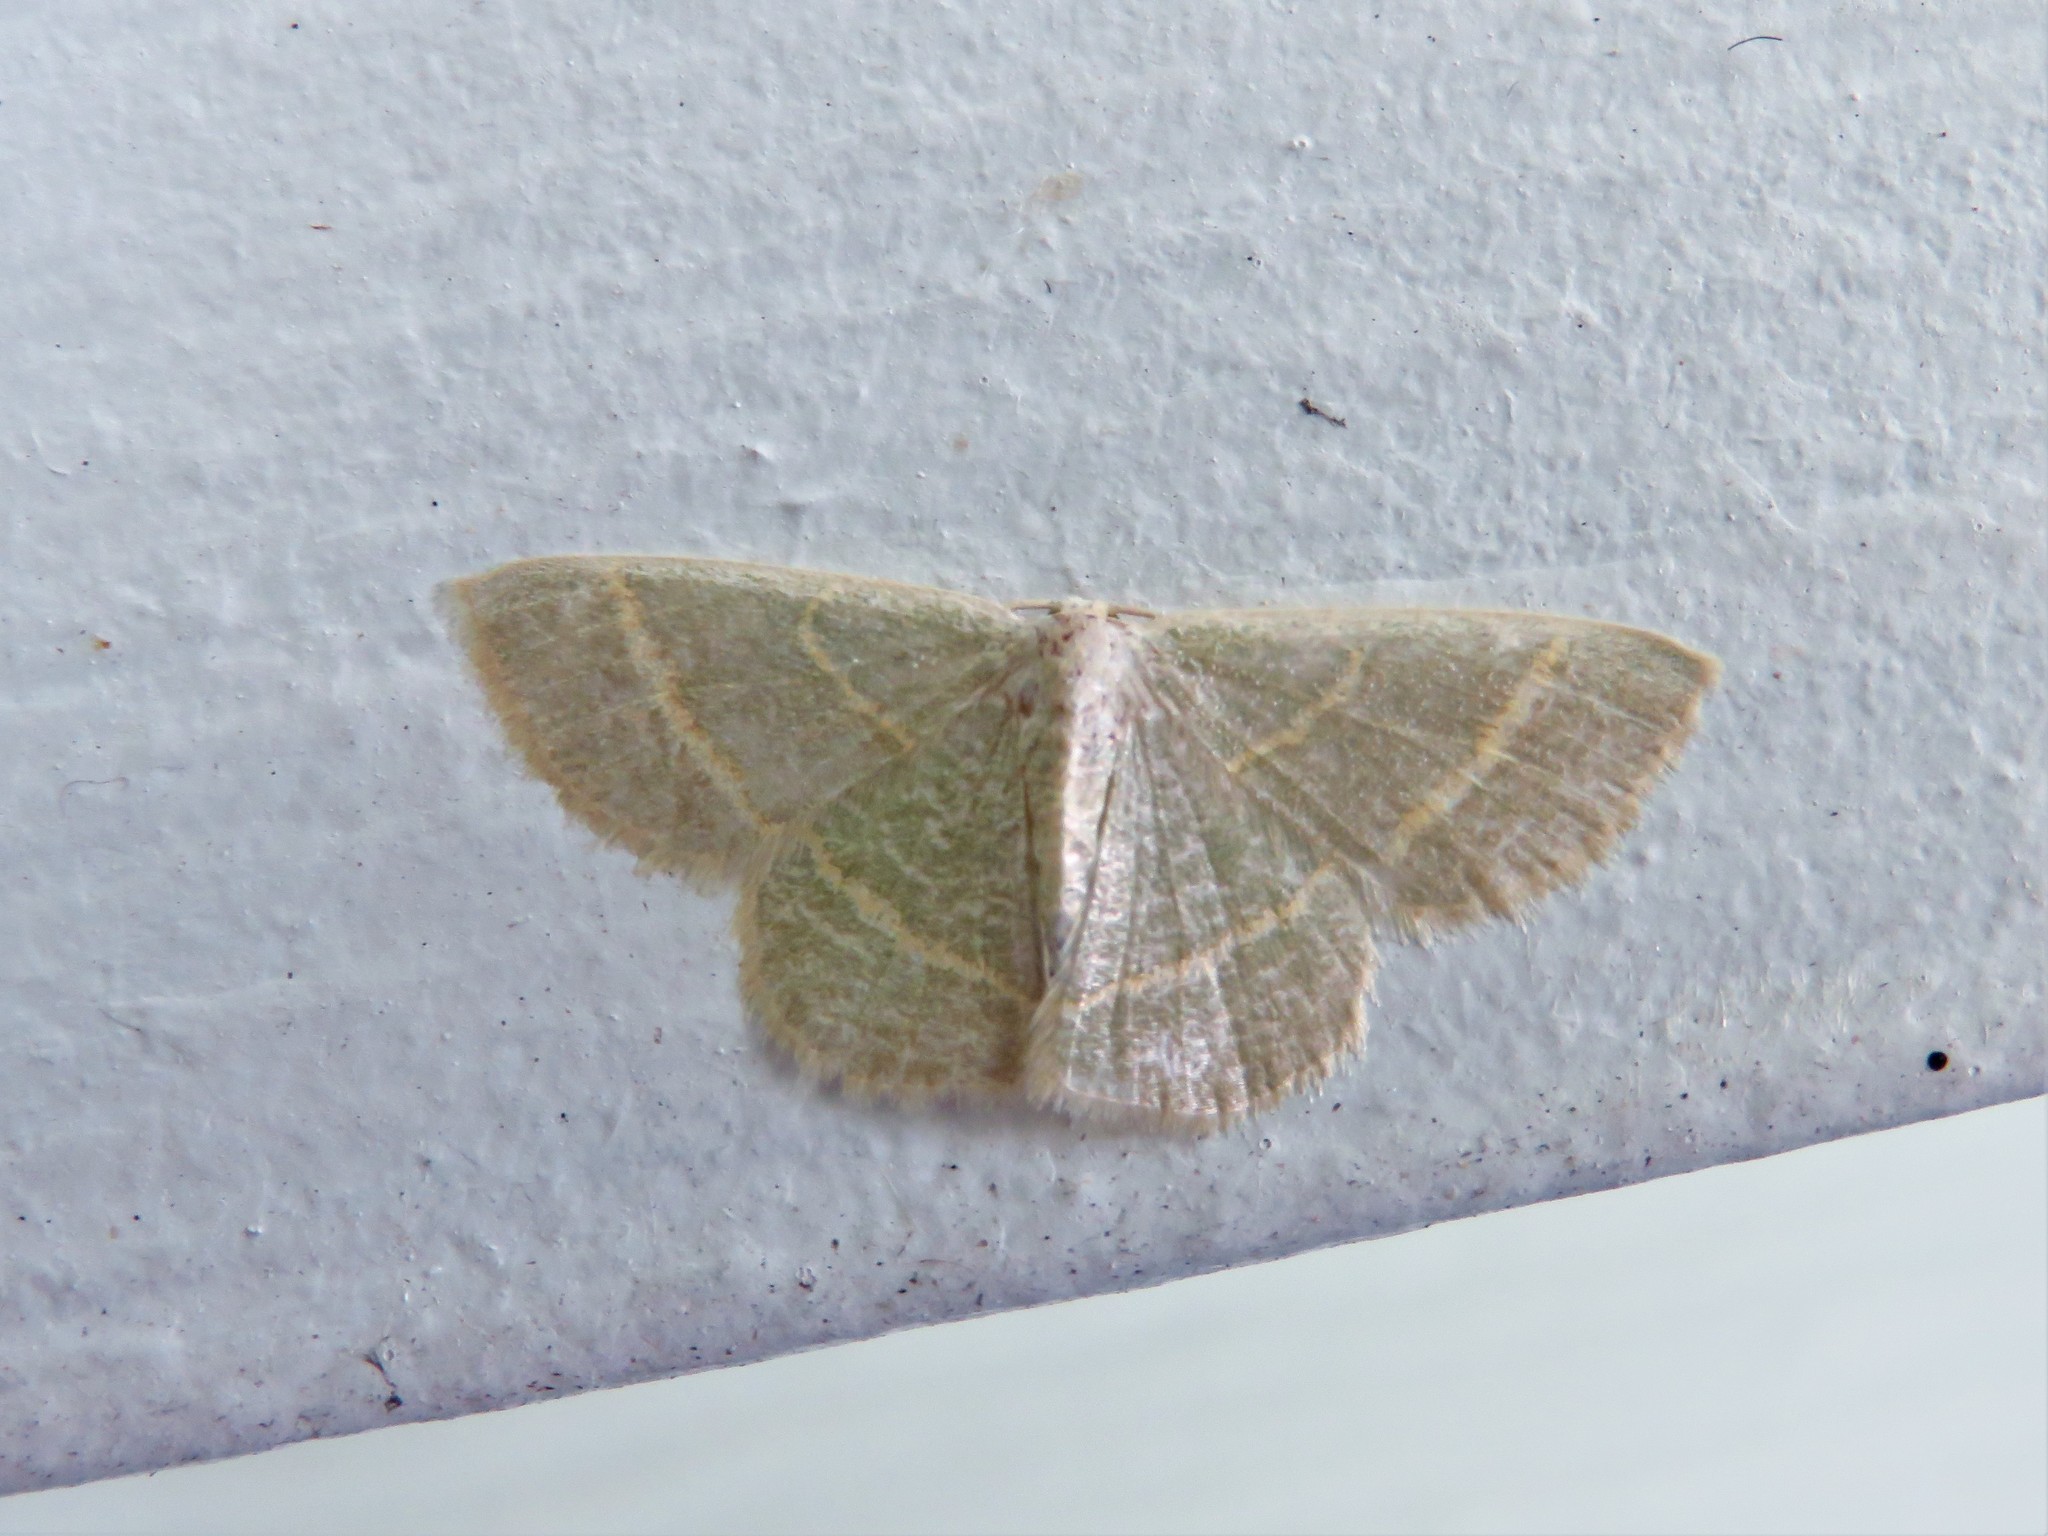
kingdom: Animalia
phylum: Arthropoda
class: Insecta
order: Lepidoptera
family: Geometridae
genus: Chlorochlamys
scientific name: Chlorochlamys chloroleucaria
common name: Blackberry looper
